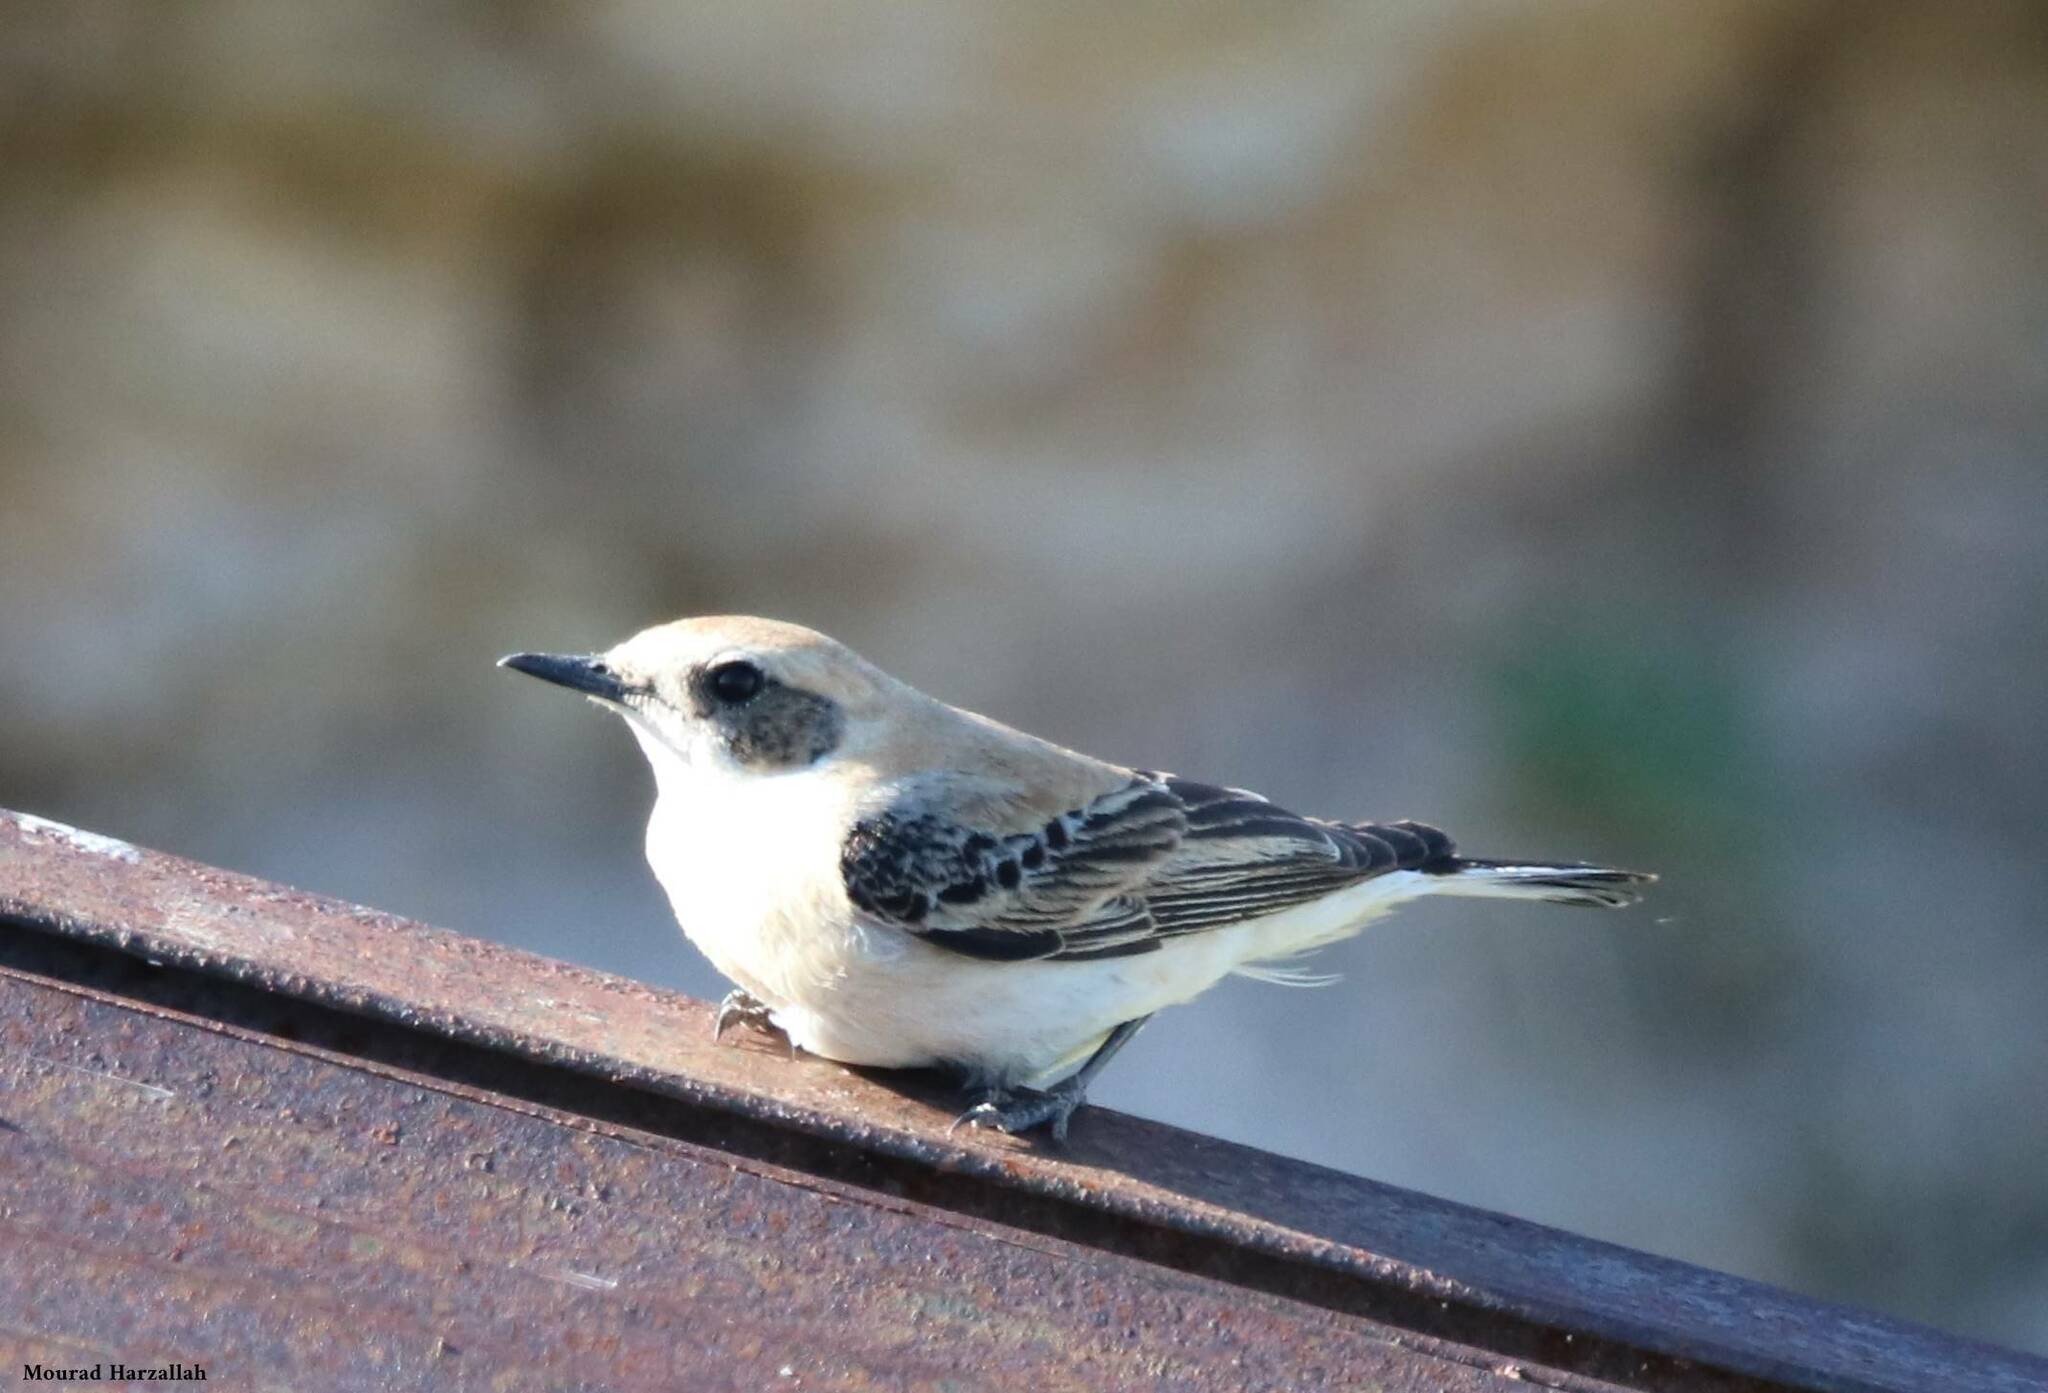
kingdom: Animalia
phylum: Chordata
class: Aves
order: Passeriformes
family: Muscicapidae
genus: Oenanthe
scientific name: Oenanthe hispanica
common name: Black-eared wheatear
